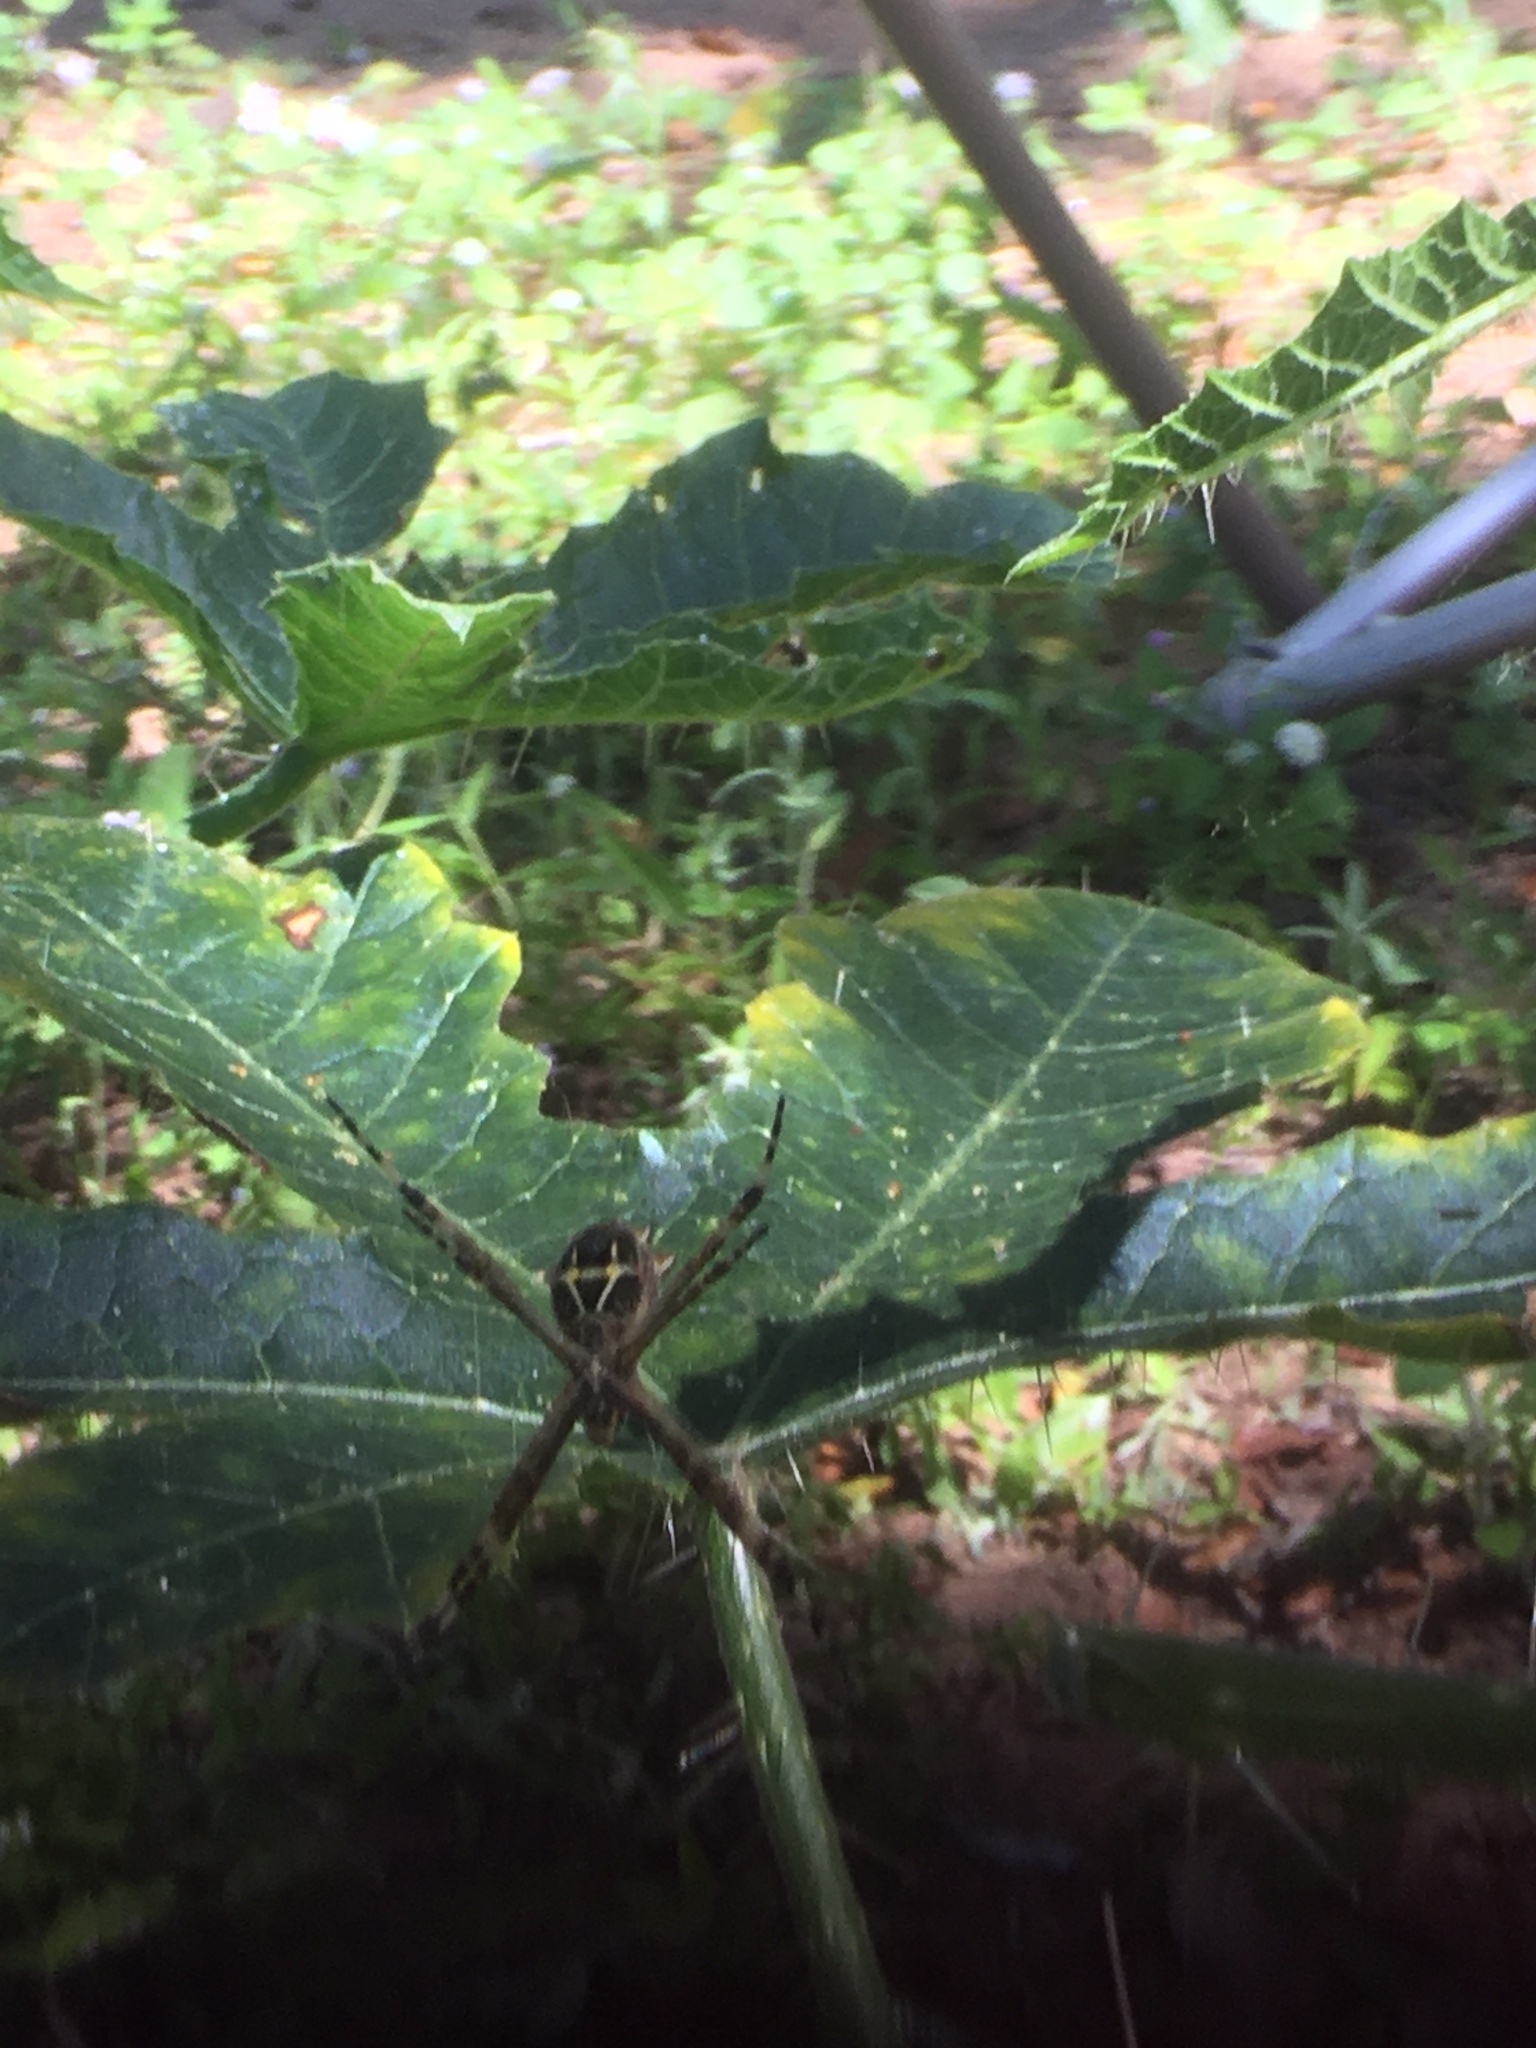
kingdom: Animalia
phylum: Arthropoda
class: Arachnida
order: Araneae
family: Araneidae
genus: Argiope
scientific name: Argiope argentata
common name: Orb weavers
